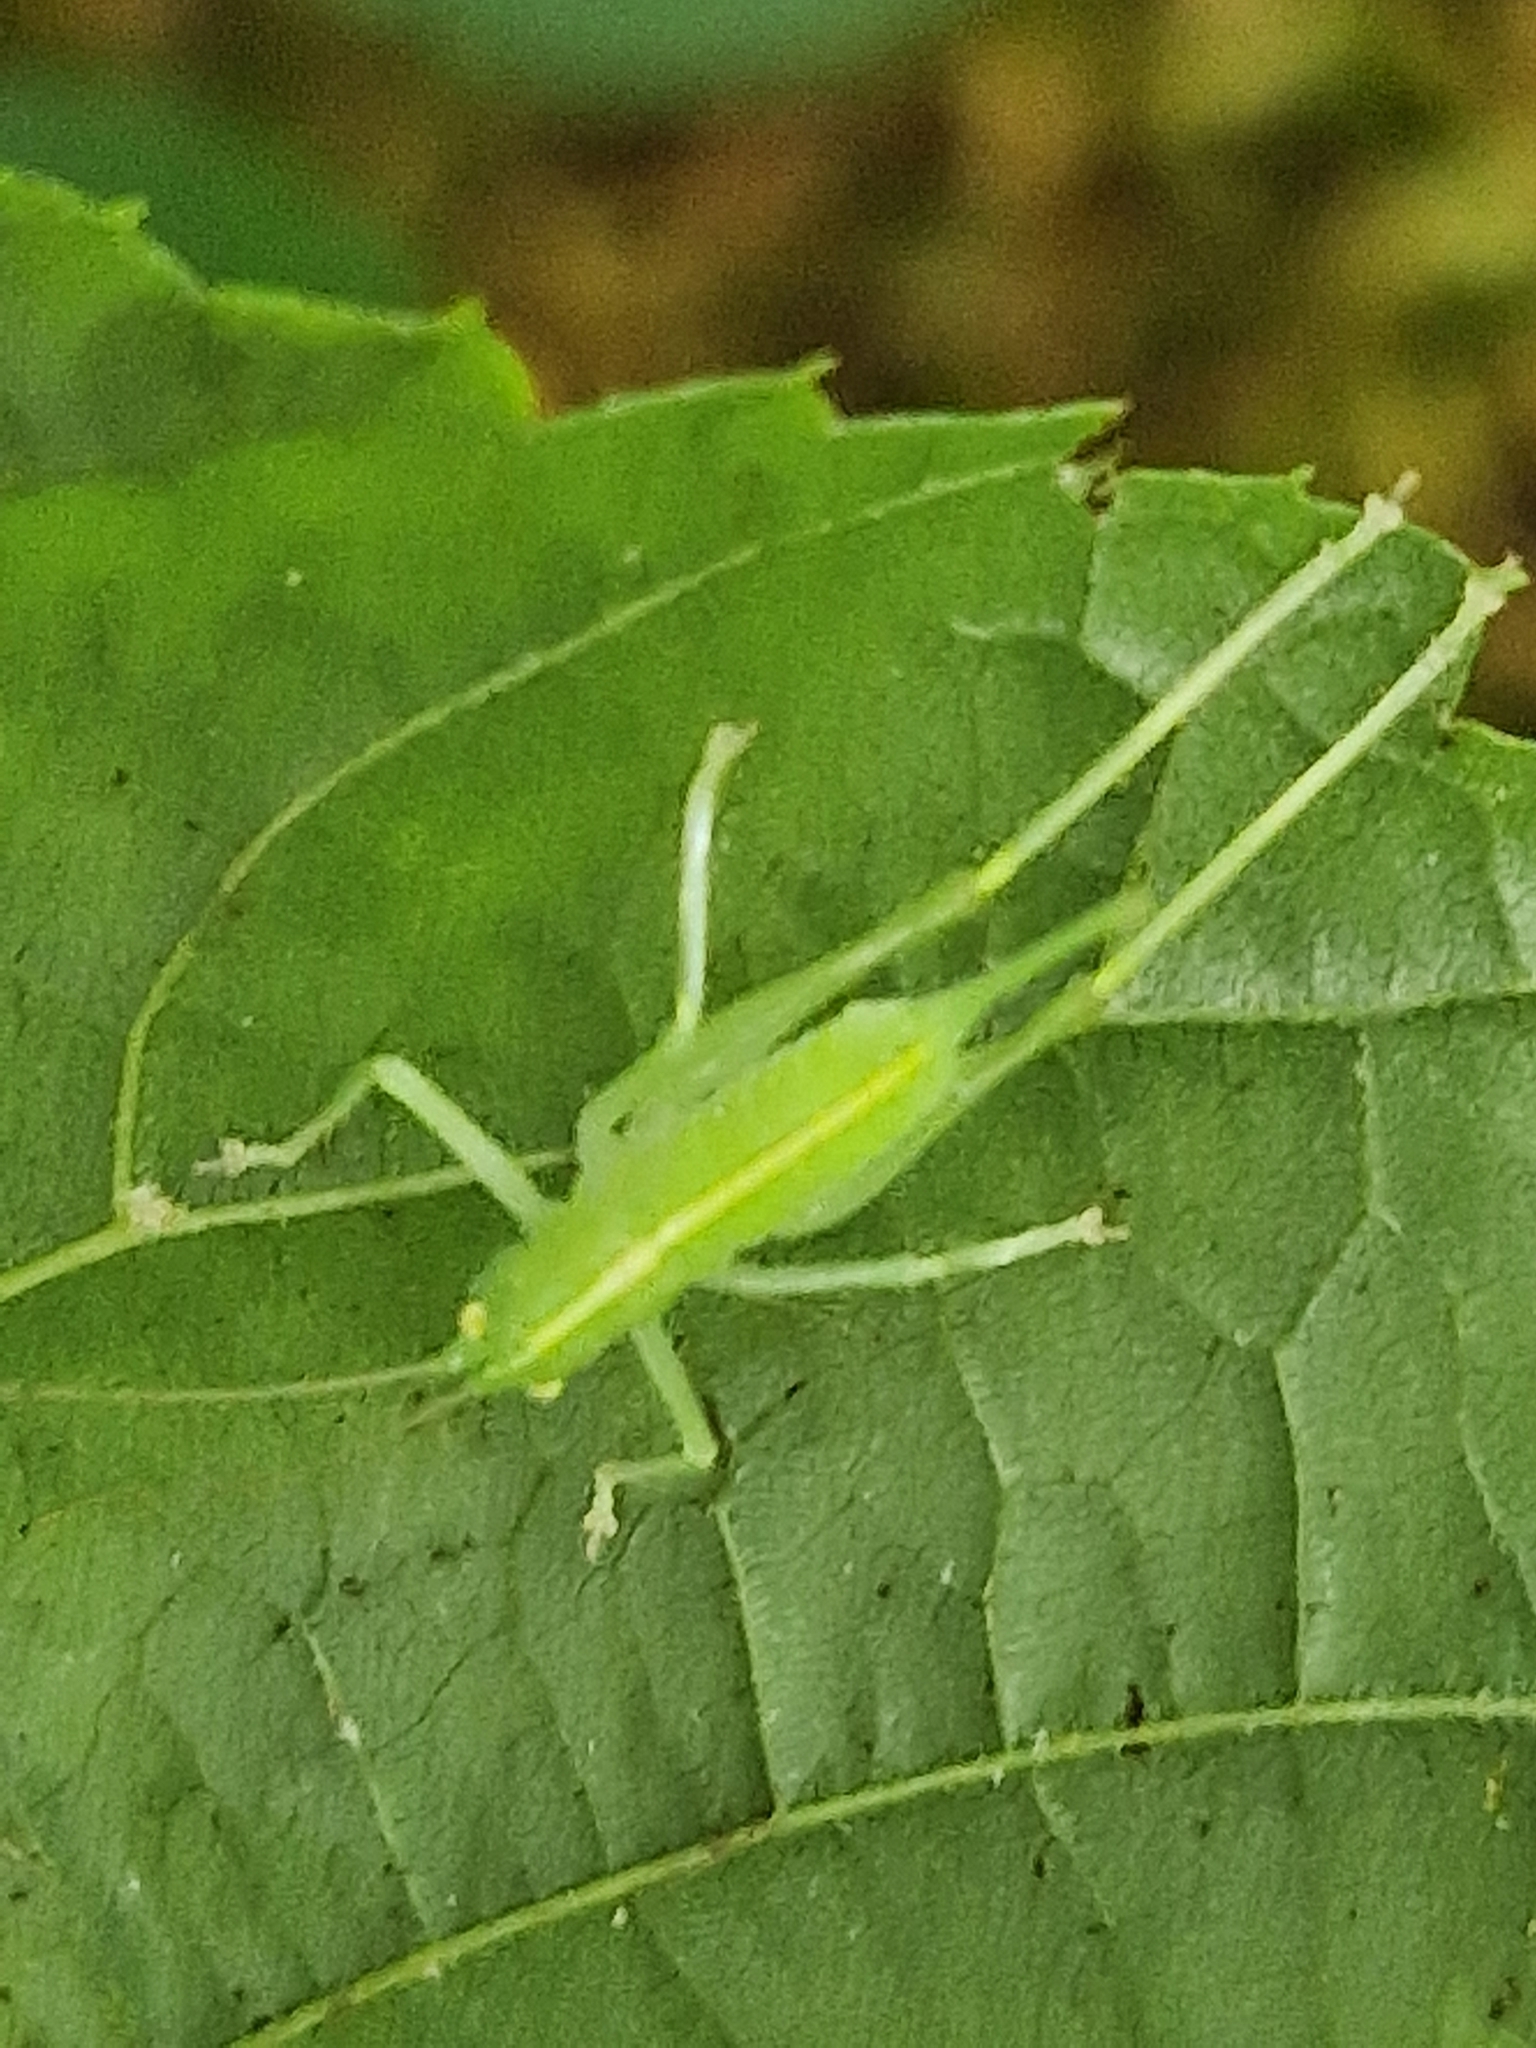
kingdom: Animalia
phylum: Arthropoda
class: Insecta
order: Orthoptera
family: Tettigoniidae
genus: Meconema
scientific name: Meconema meridionale
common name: Southern oak bush-cricket
